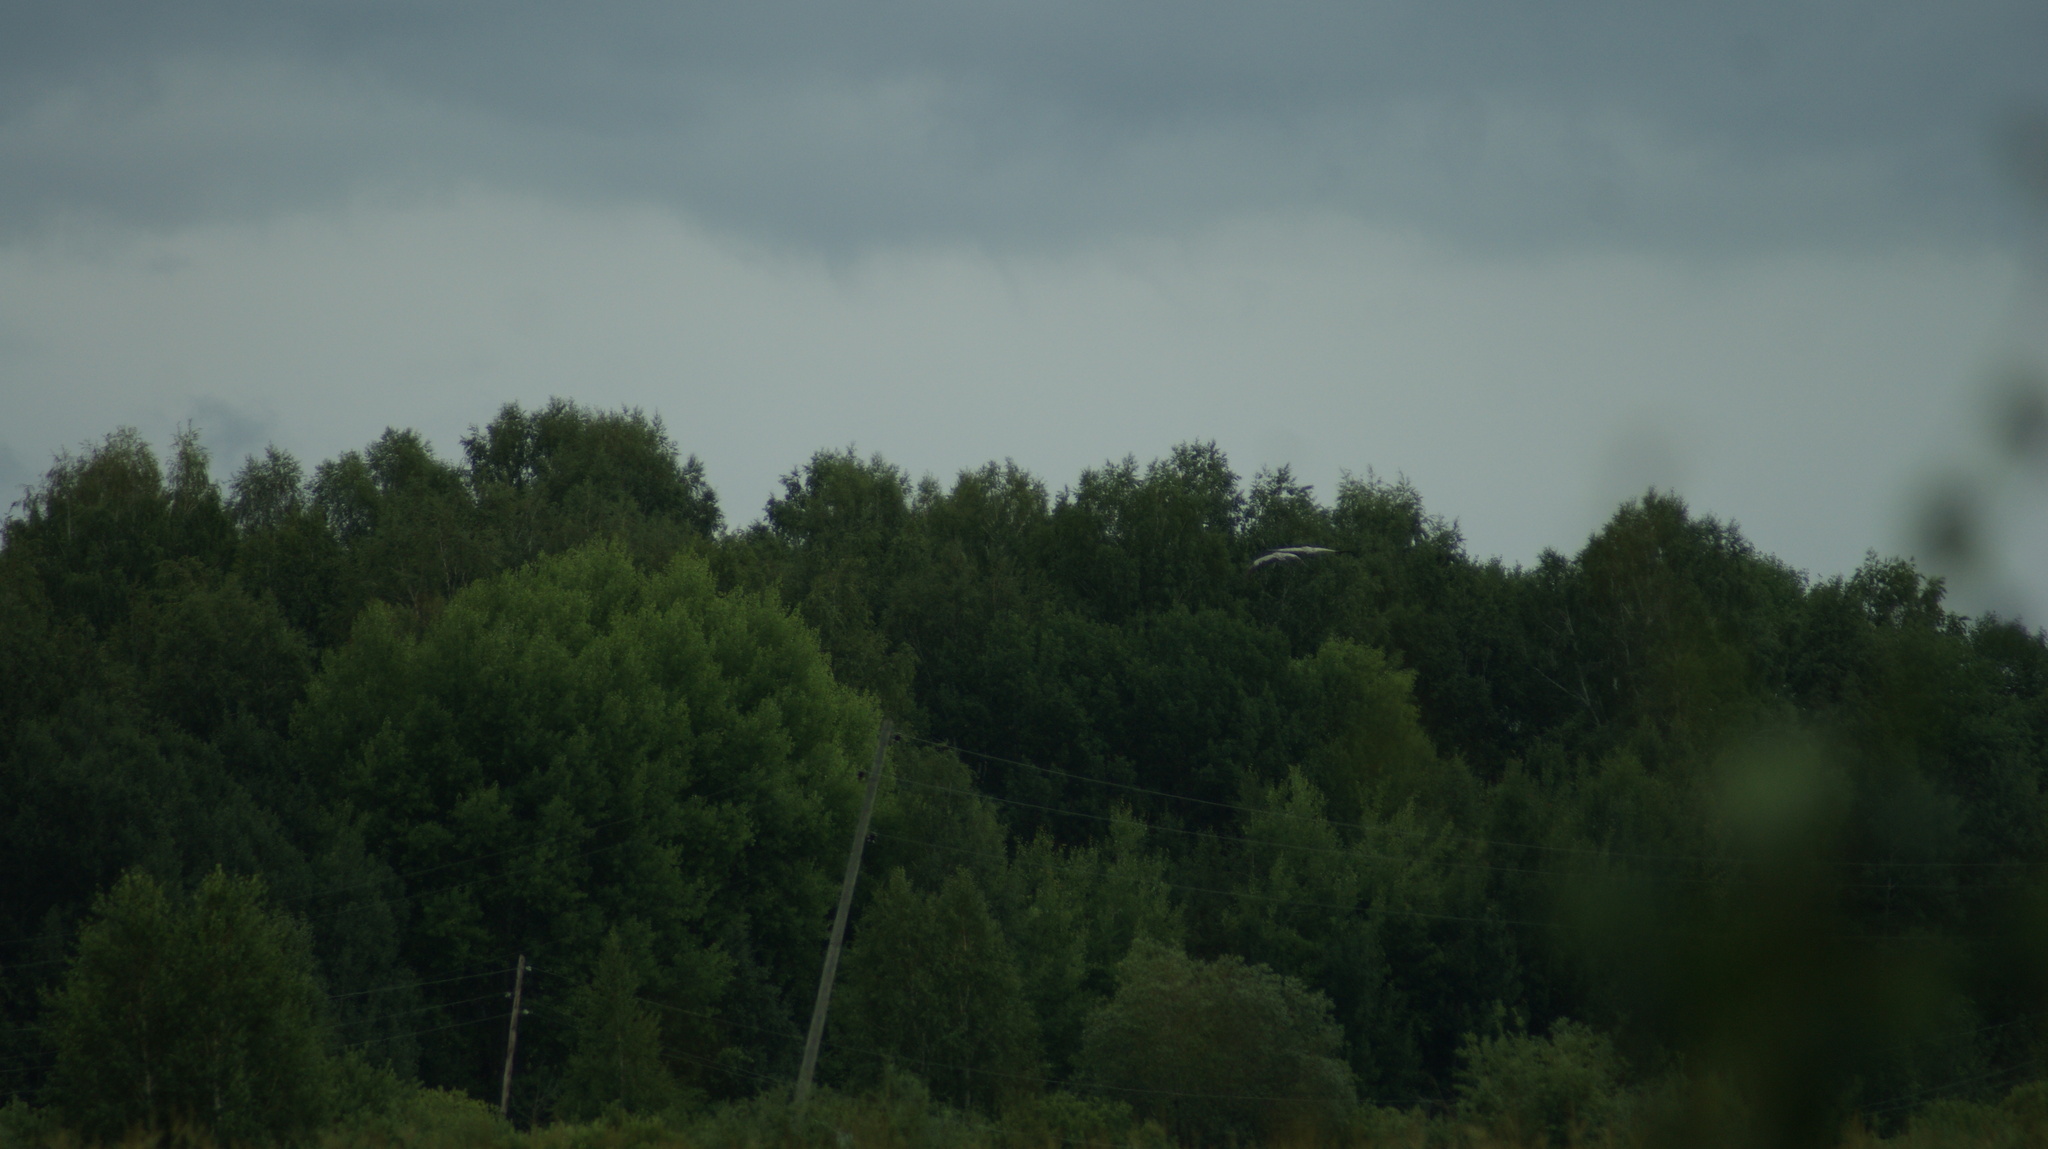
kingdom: Animalia
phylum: Chordata
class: Aves
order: Gruiformes
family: Gruidae
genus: Grus
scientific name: Grus grus
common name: Common crane
